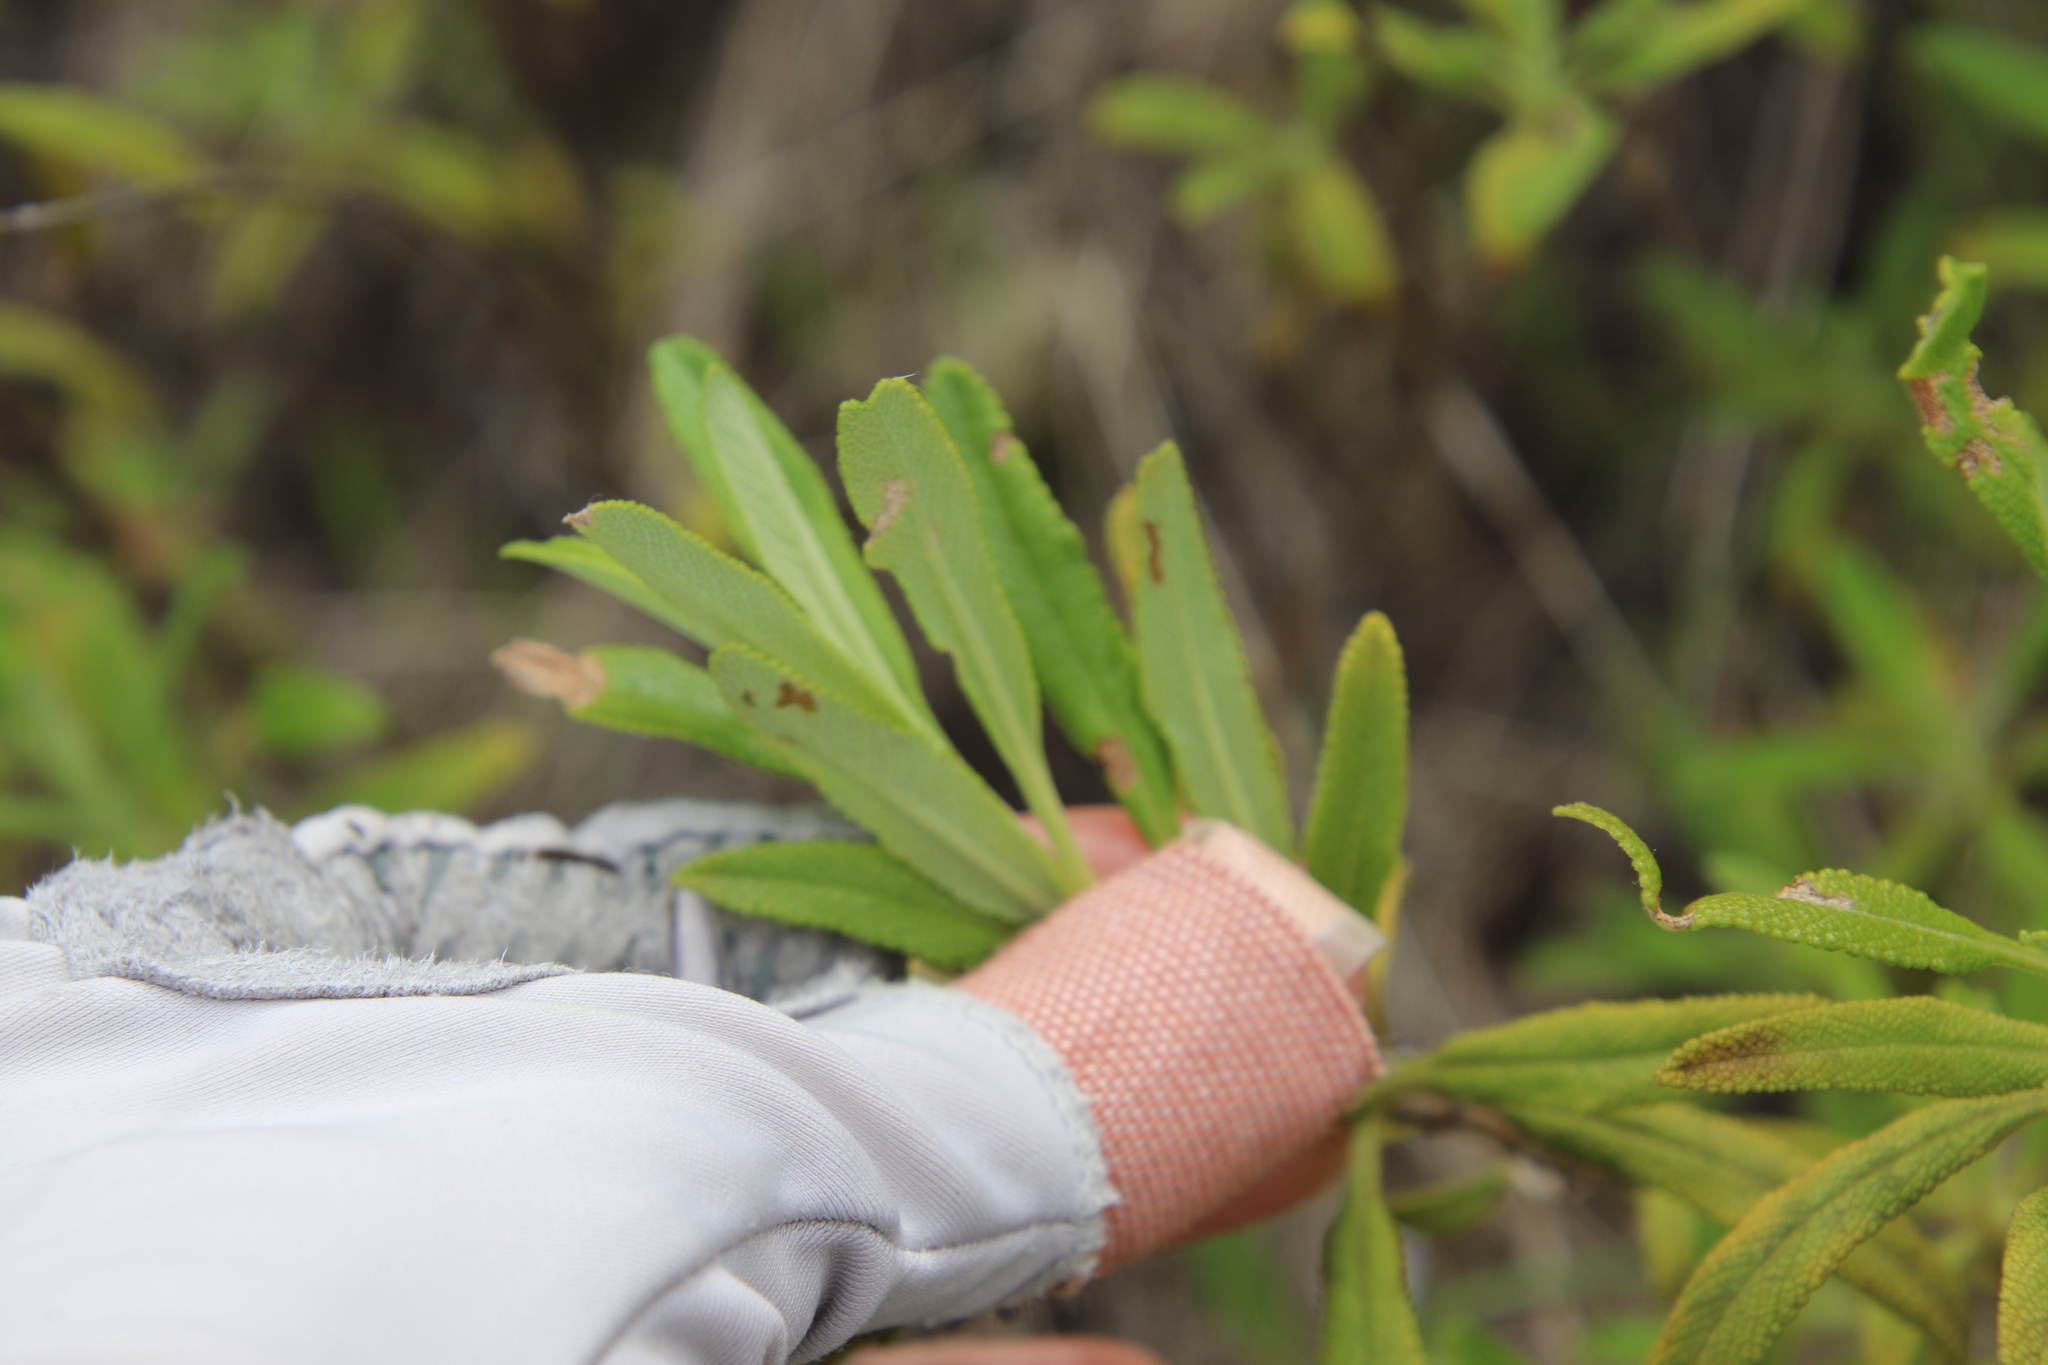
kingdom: Plantae
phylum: Tracheophyta
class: Magnoliopsida
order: Lamiales
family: Lamiaceae
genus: Salvia
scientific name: Salvia mellifera
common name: Black sage
